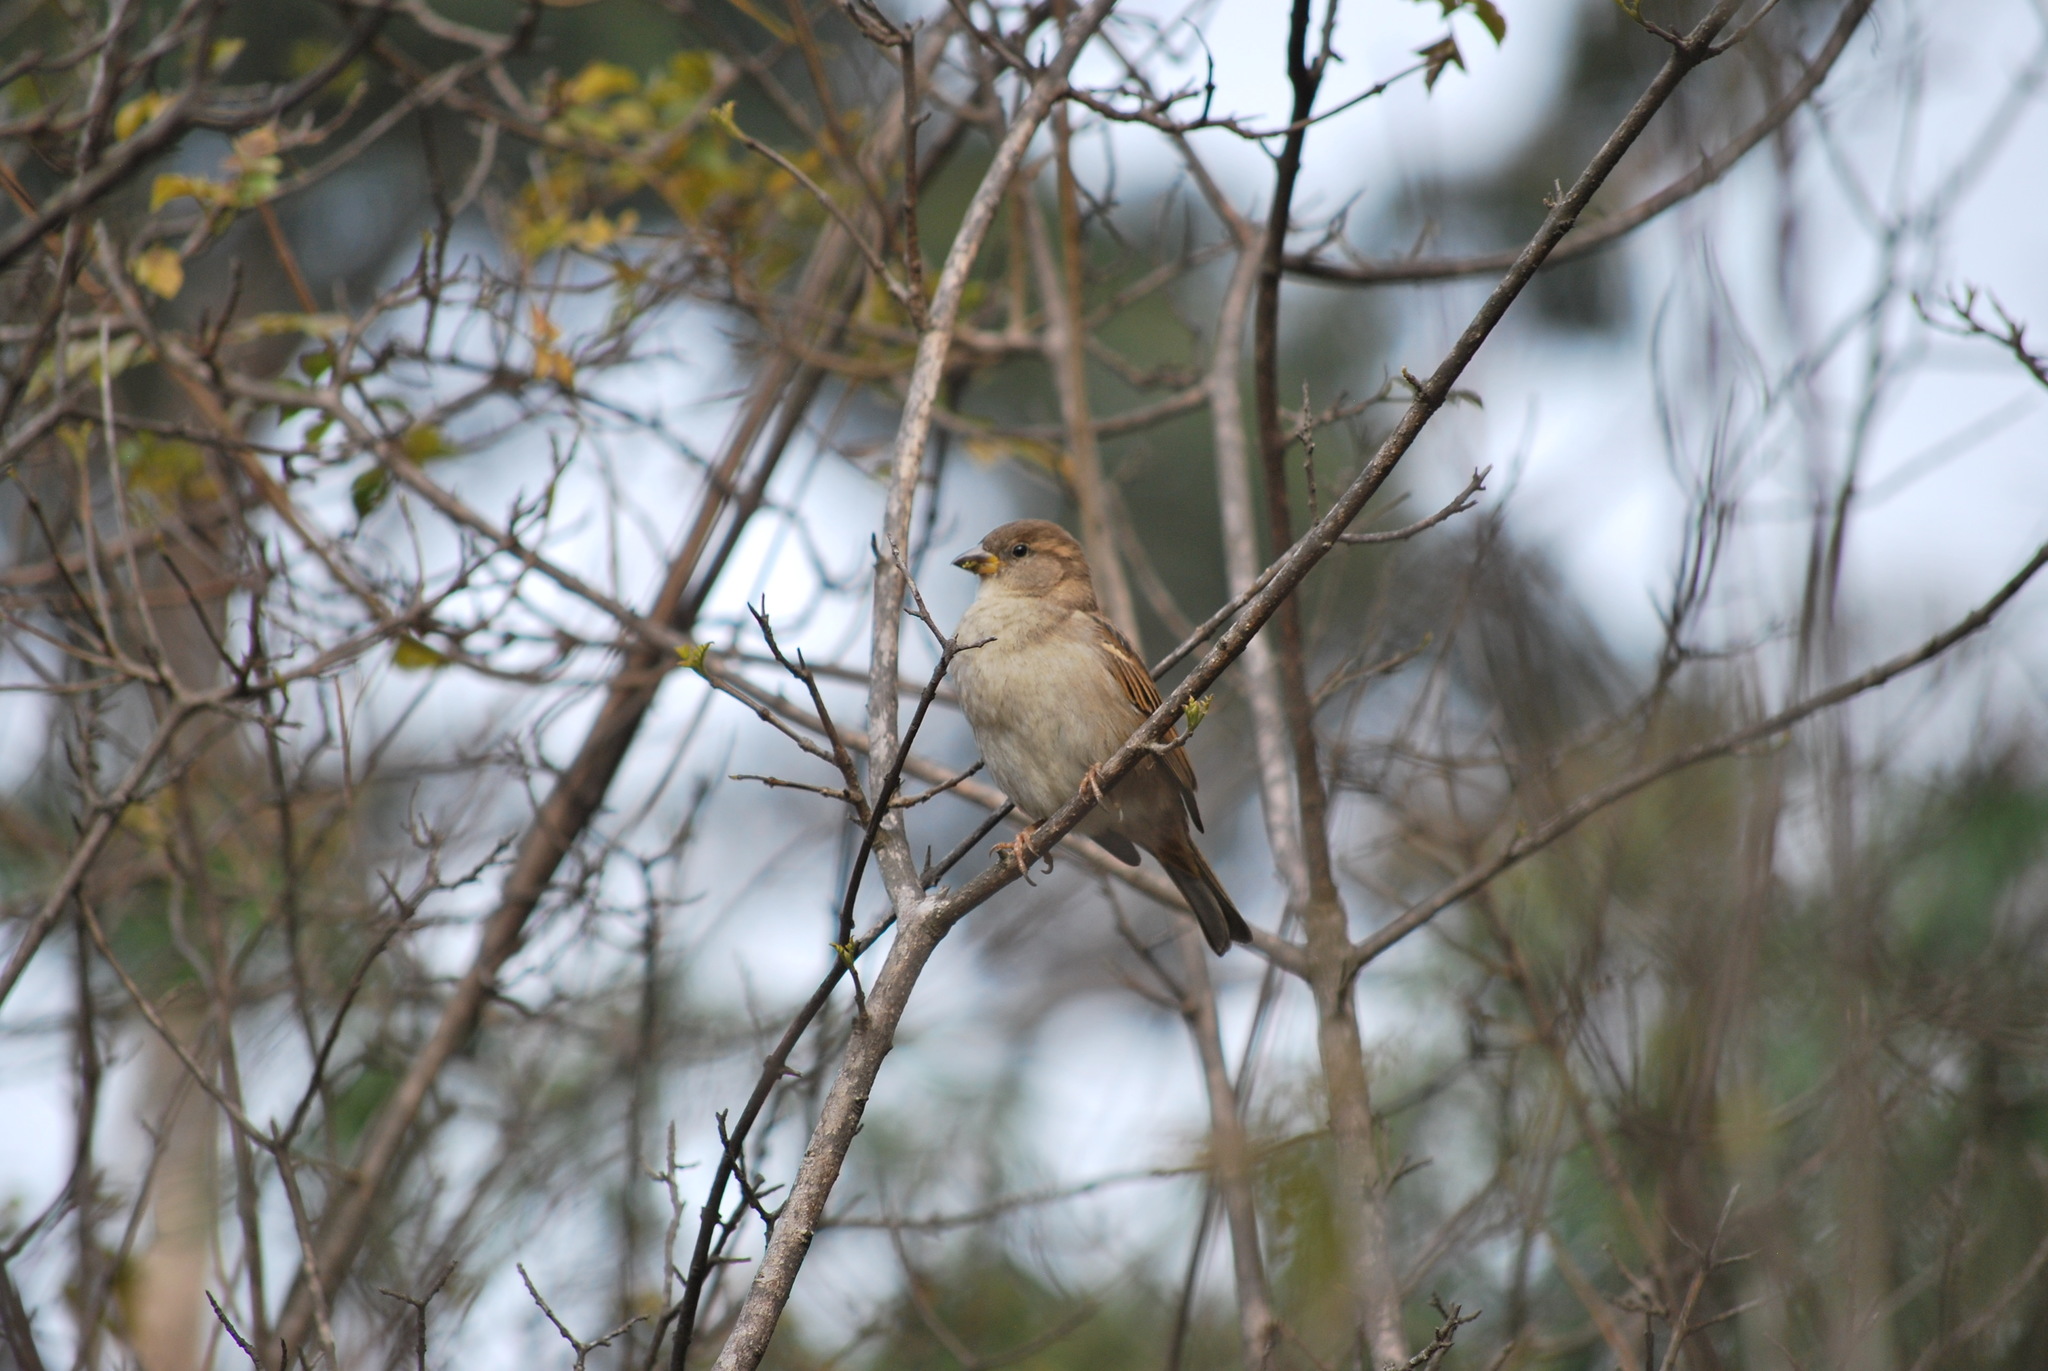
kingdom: Animalia
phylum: Chordata
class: Aves
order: Passeriformes
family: Passeridae
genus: Passer
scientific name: Passer domesticus
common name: House sparrow
